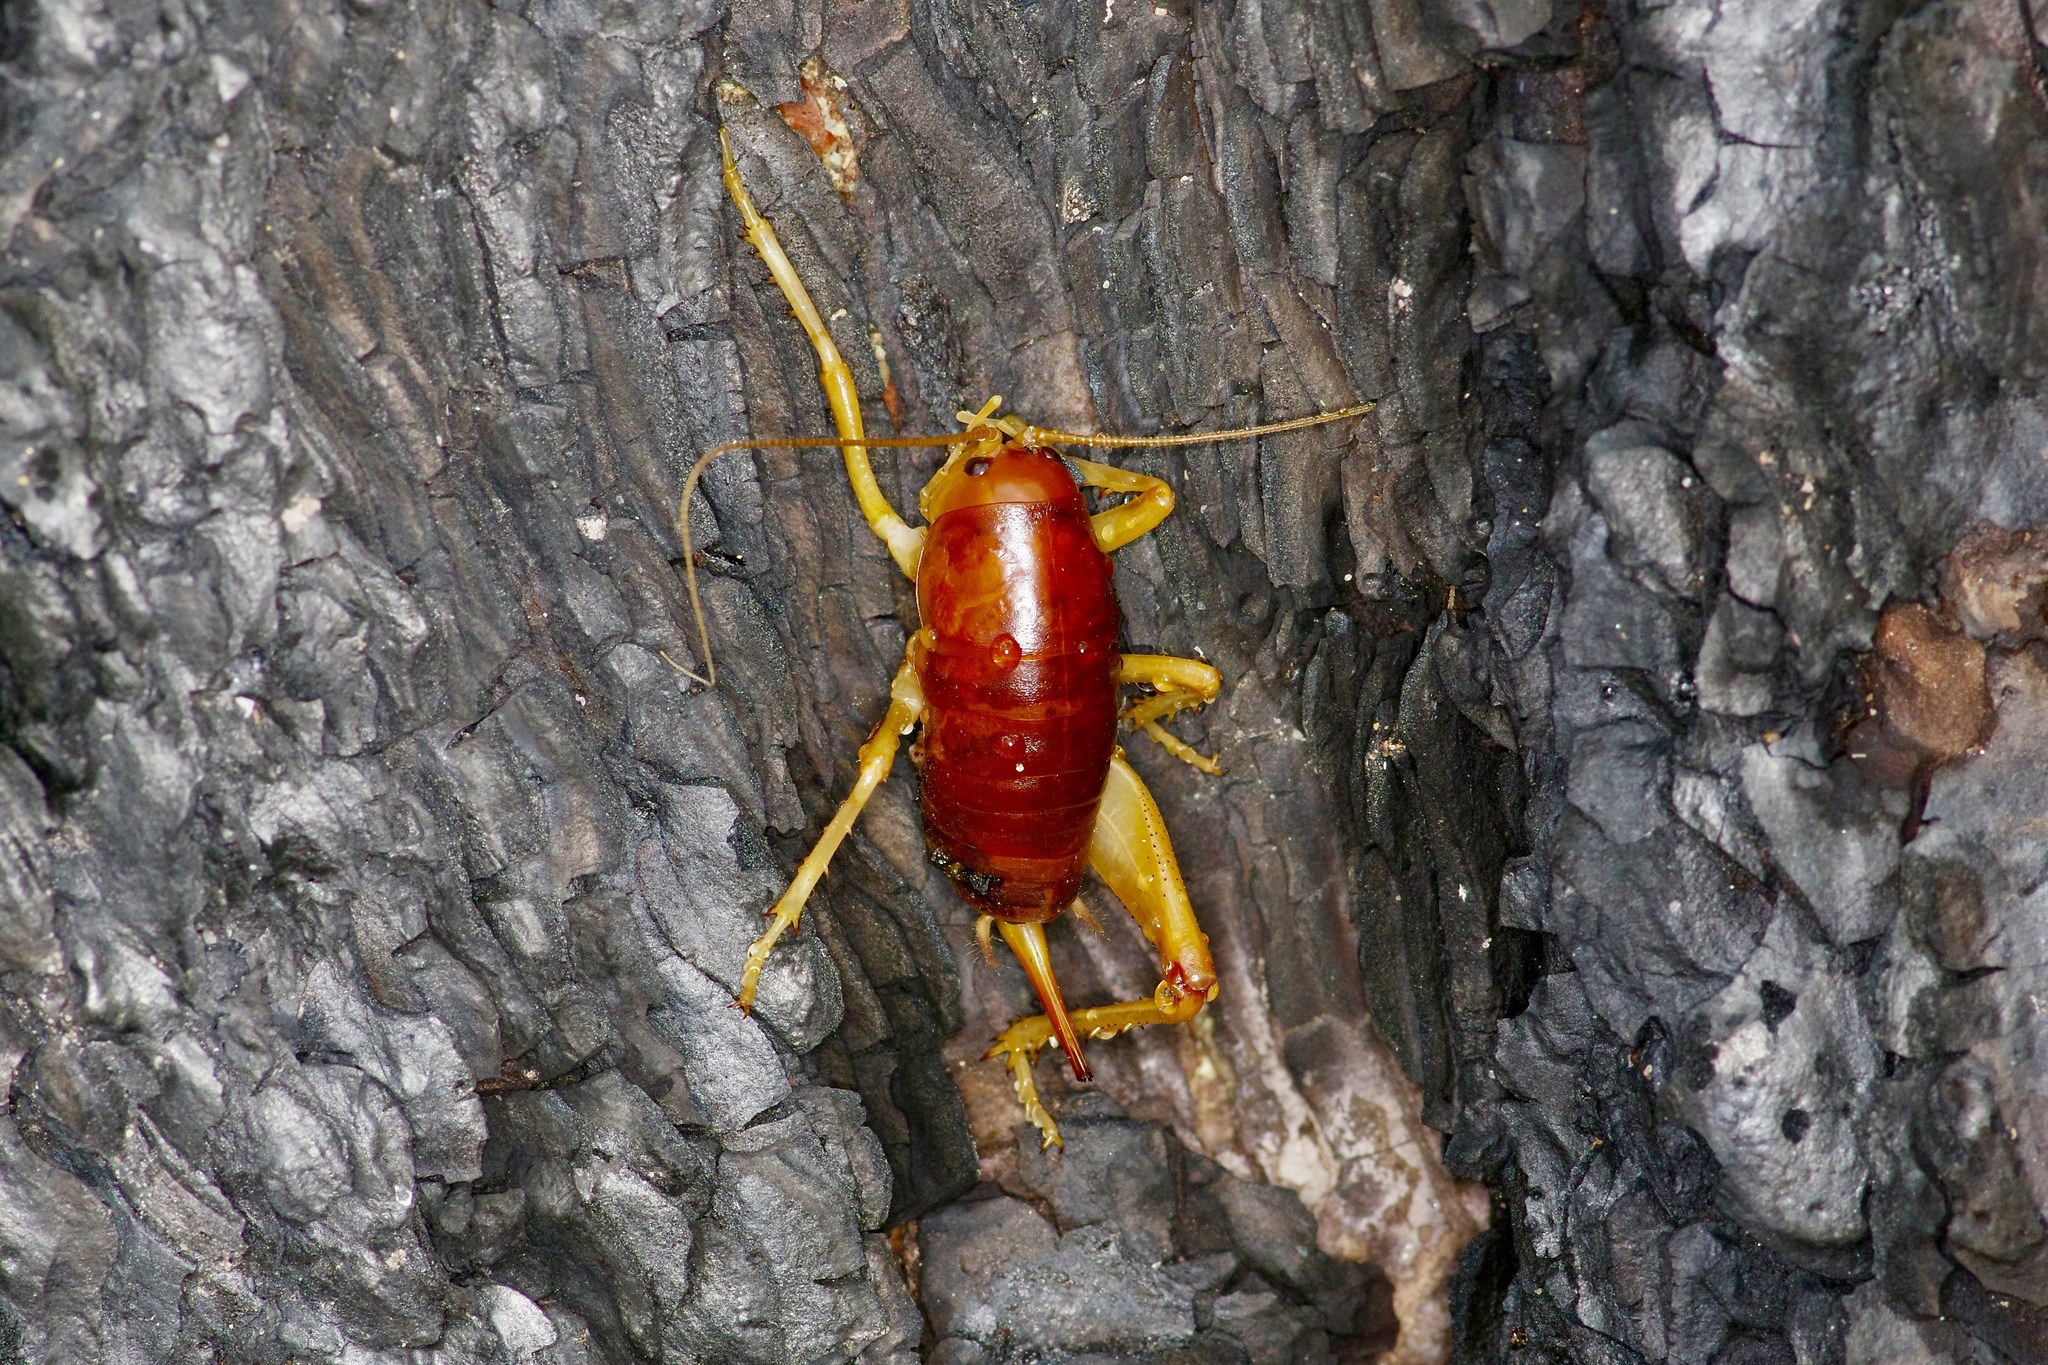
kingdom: Animalia
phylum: Arthropoda
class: Insecta
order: Orthoptera
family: Rhaphidophoridae
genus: Styracosceles
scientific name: Styracosceles neomexicanus
